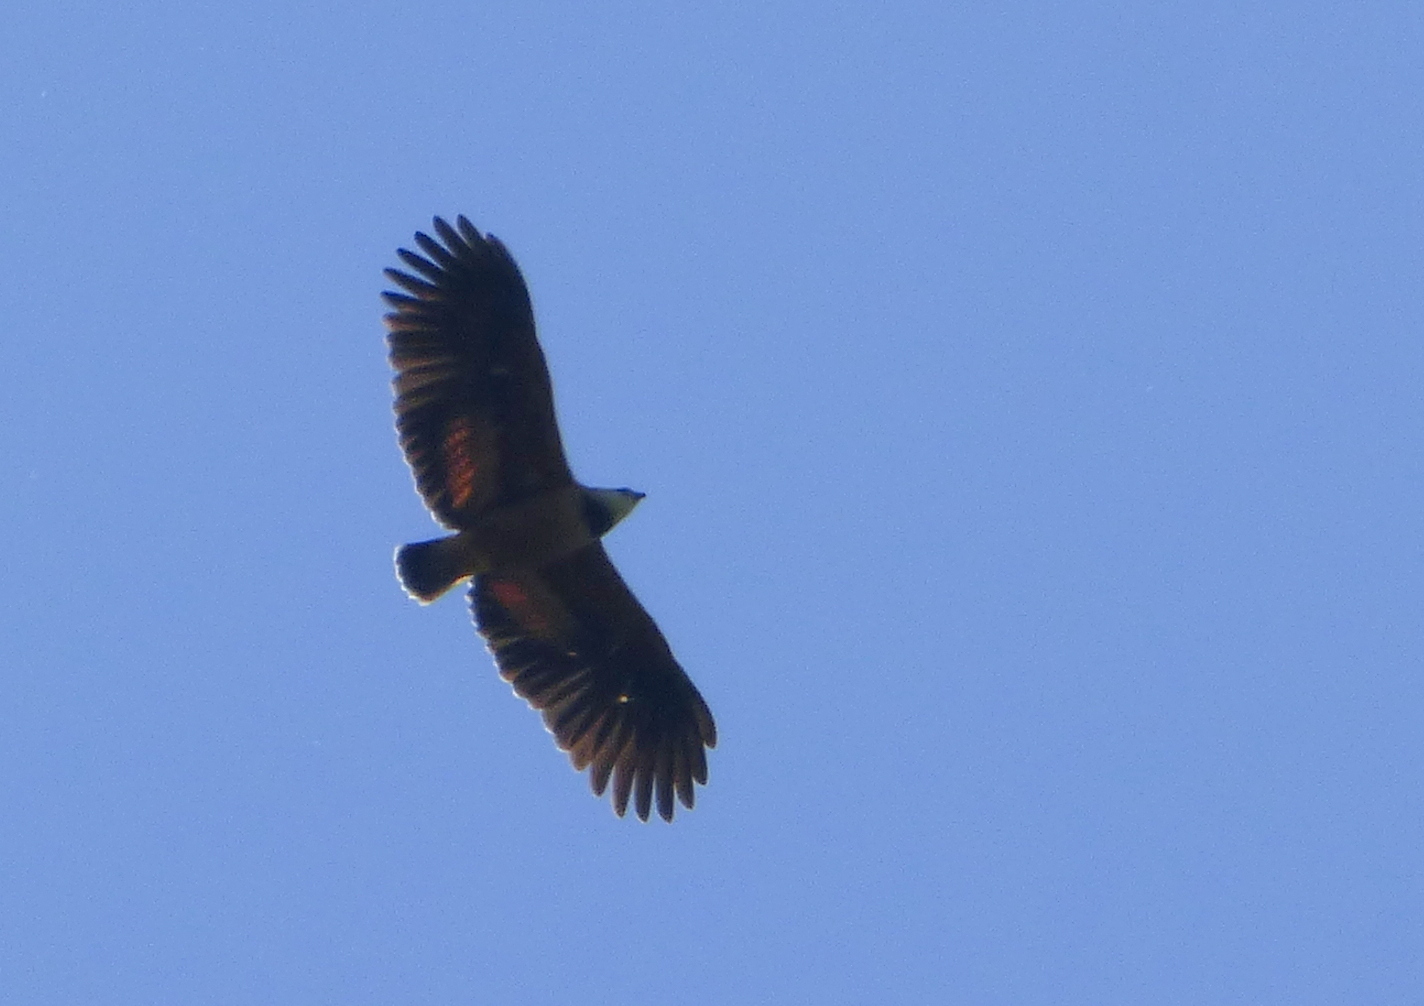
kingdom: Animalia
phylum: Chordata
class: Aves
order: Accipitriformes
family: Accipitridae
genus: Busarellus
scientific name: Busarellus nigricollis
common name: Black-collared hawk
